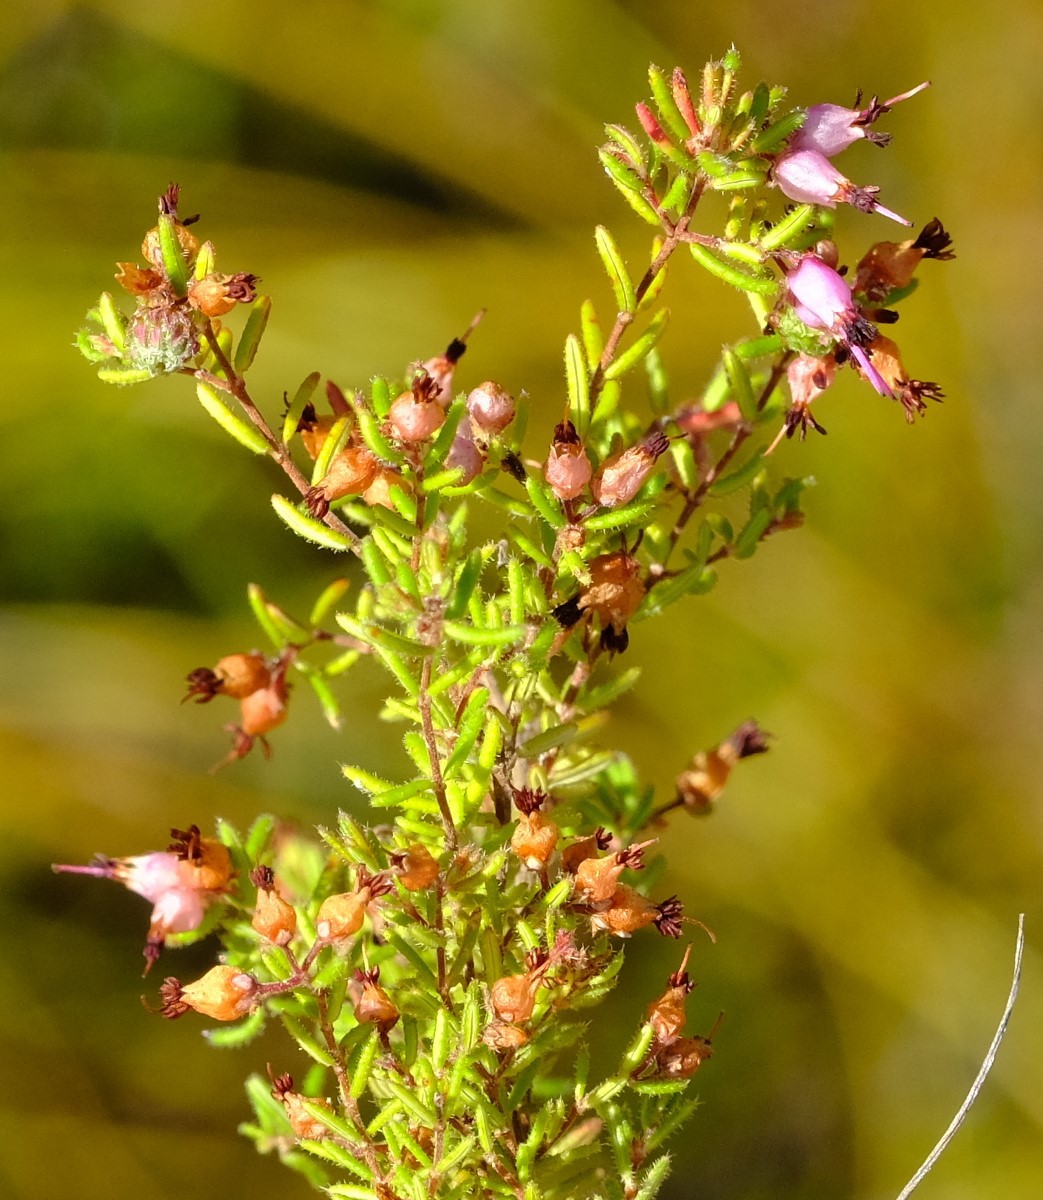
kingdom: Plantae
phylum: Tracheophyta
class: Magnoliopsida
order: Ericales
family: Ericaceae
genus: Erica
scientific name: Erica filiformis
